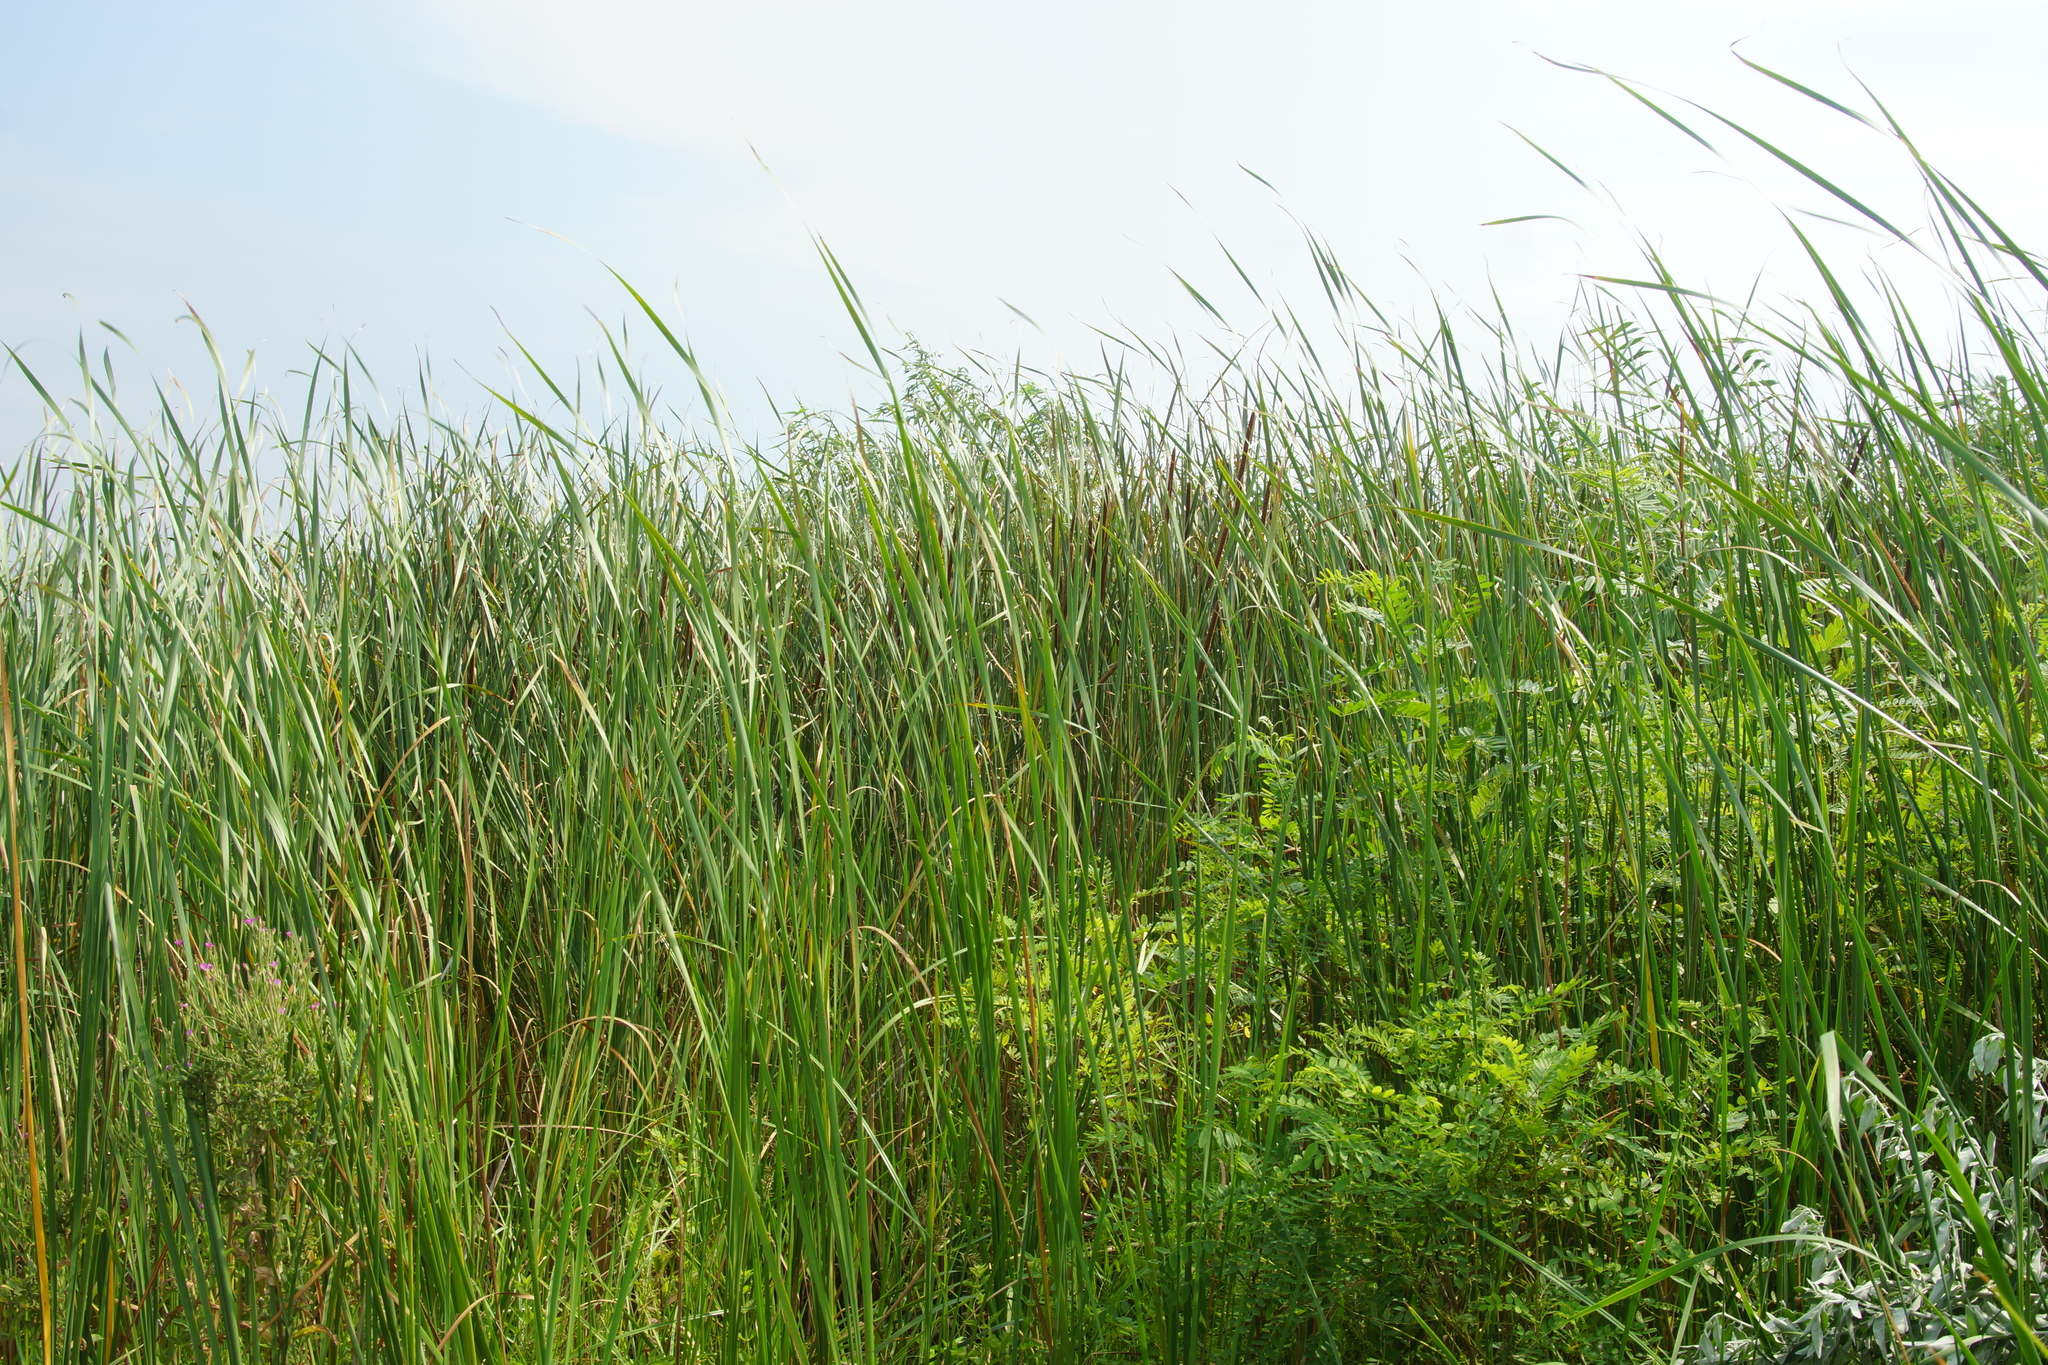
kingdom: Plantae
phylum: Tracheophyta
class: Liliopsida
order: Poales
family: Typhaceae
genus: Typha
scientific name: Typha angustifolia
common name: Lesser bulrush
